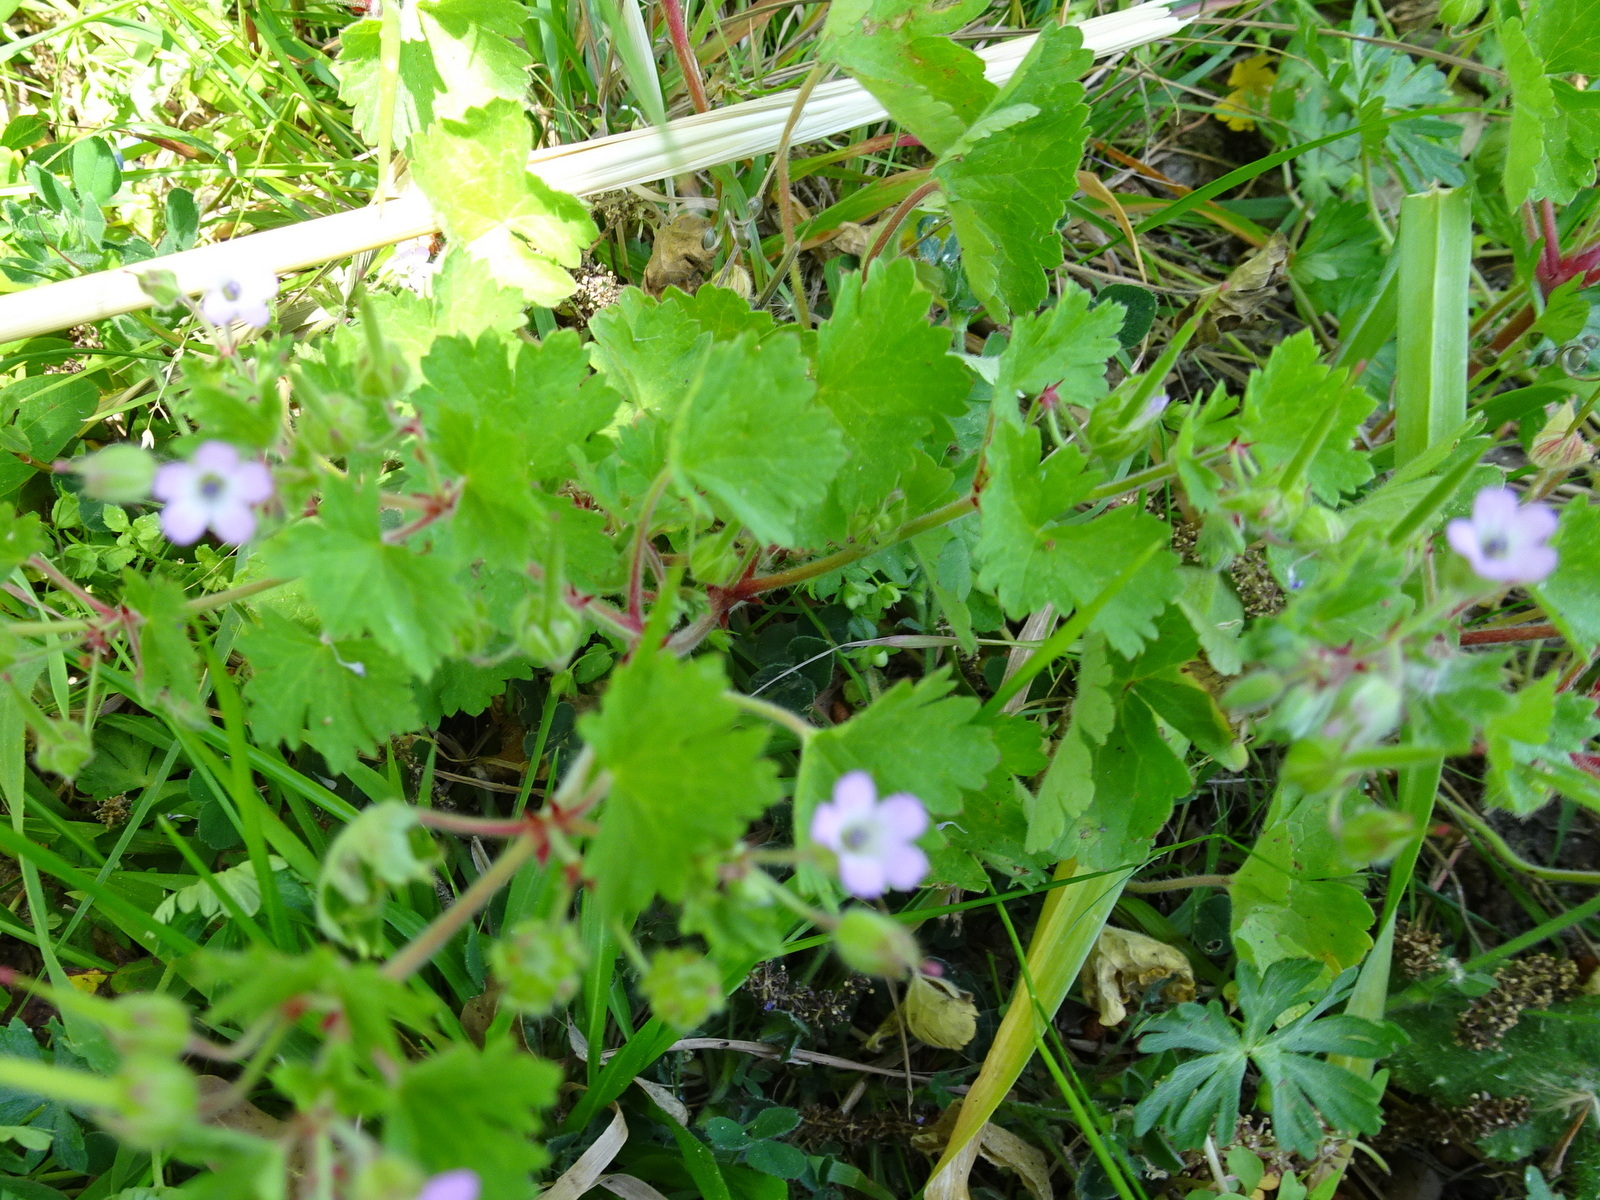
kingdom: Plantae
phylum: Tracheophyta
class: Magnoliopsida
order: Geraniales
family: Geraniaceae
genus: Geranium
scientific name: Geranium rotundifolium
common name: Round-leaved crane's-bill
